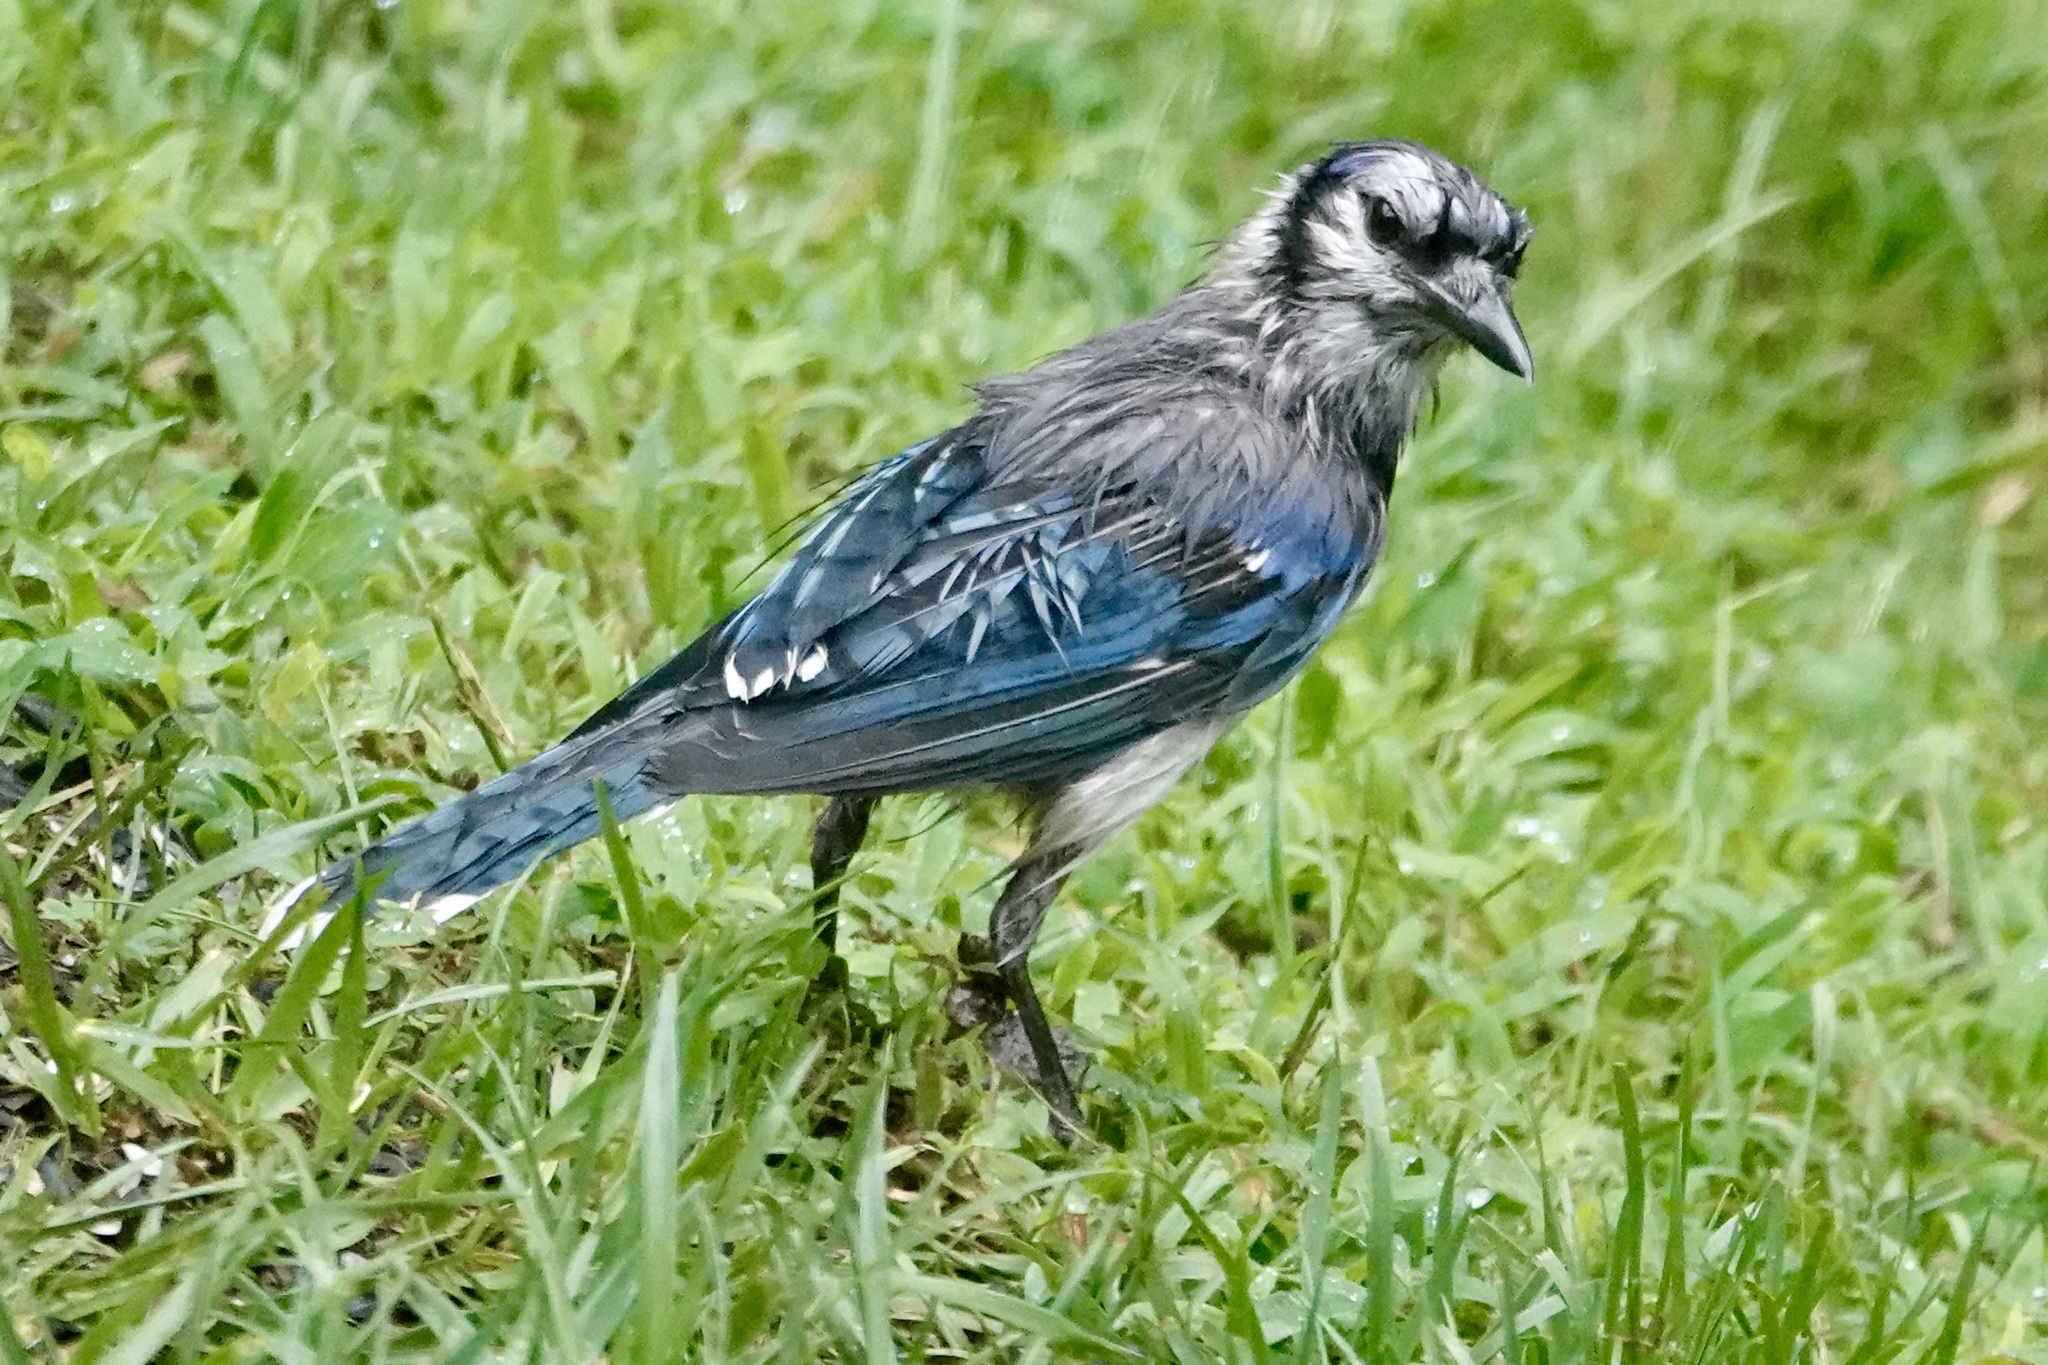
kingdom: Animalia
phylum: Chordata
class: Aves
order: Passeriformes
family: Corvidae
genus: Cyanocitta
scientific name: Cyanocitta cristata
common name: Blue jay
